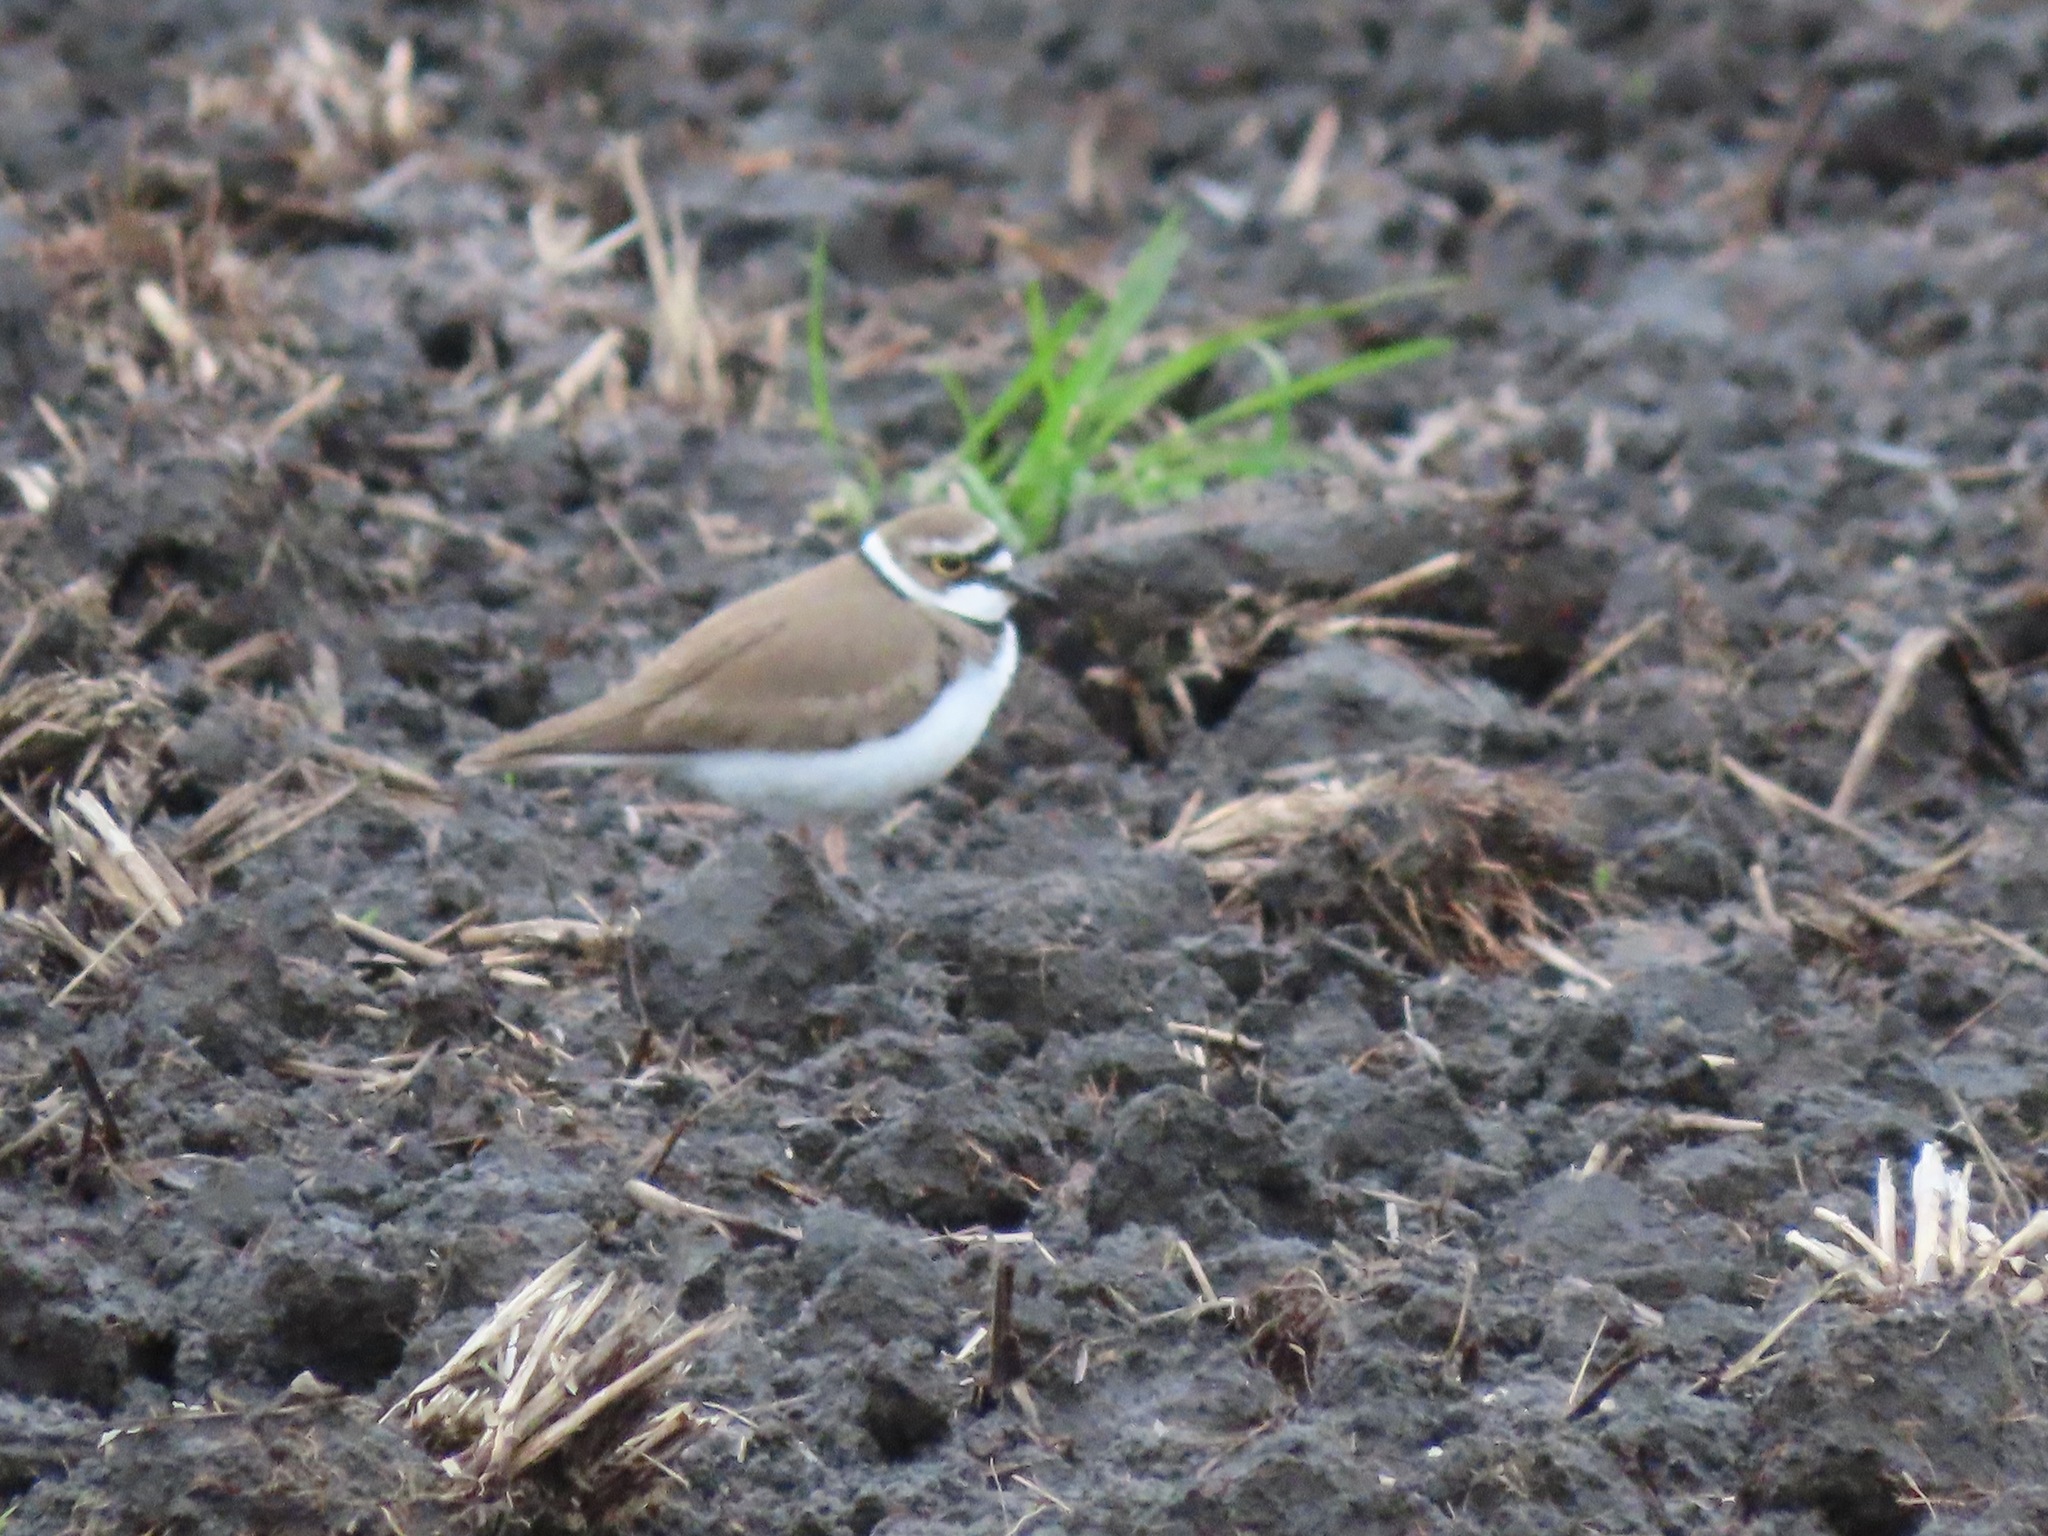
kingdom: Animalia
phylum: Chordata
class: Aves
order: Charadriiformes
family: Charadriidae
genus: Charadrius
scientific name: Charadrius dubius
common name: Little ringed plover
